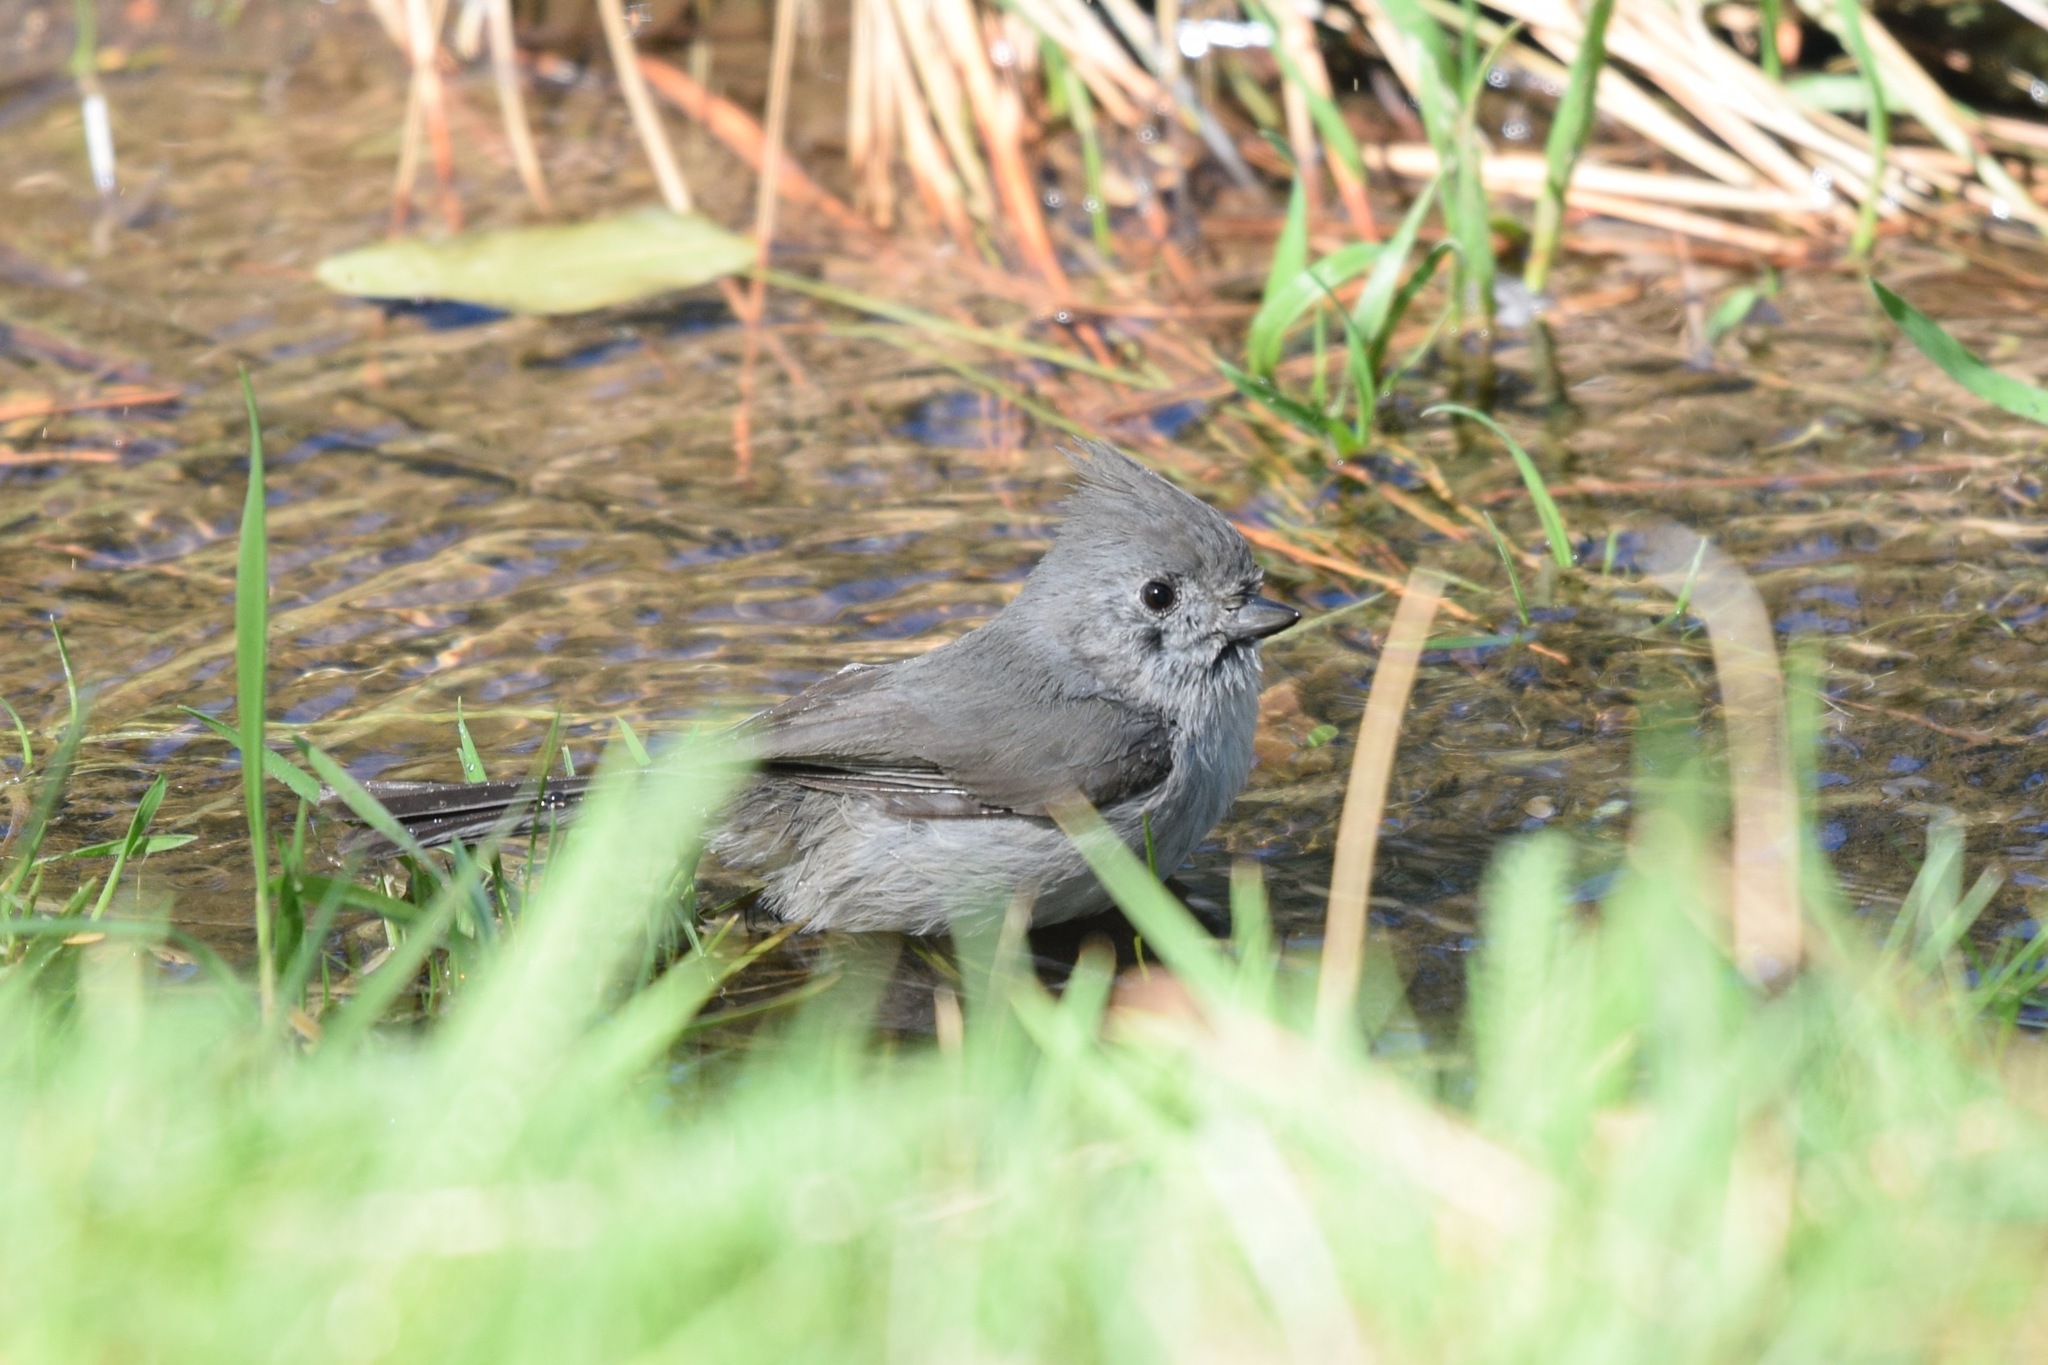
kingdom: Animalia
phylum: Chordata
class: Aves
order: Passeriformes
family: Paridae
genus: Baeolophus
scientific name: Baeolophus inornatus
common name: Oak titmouse
